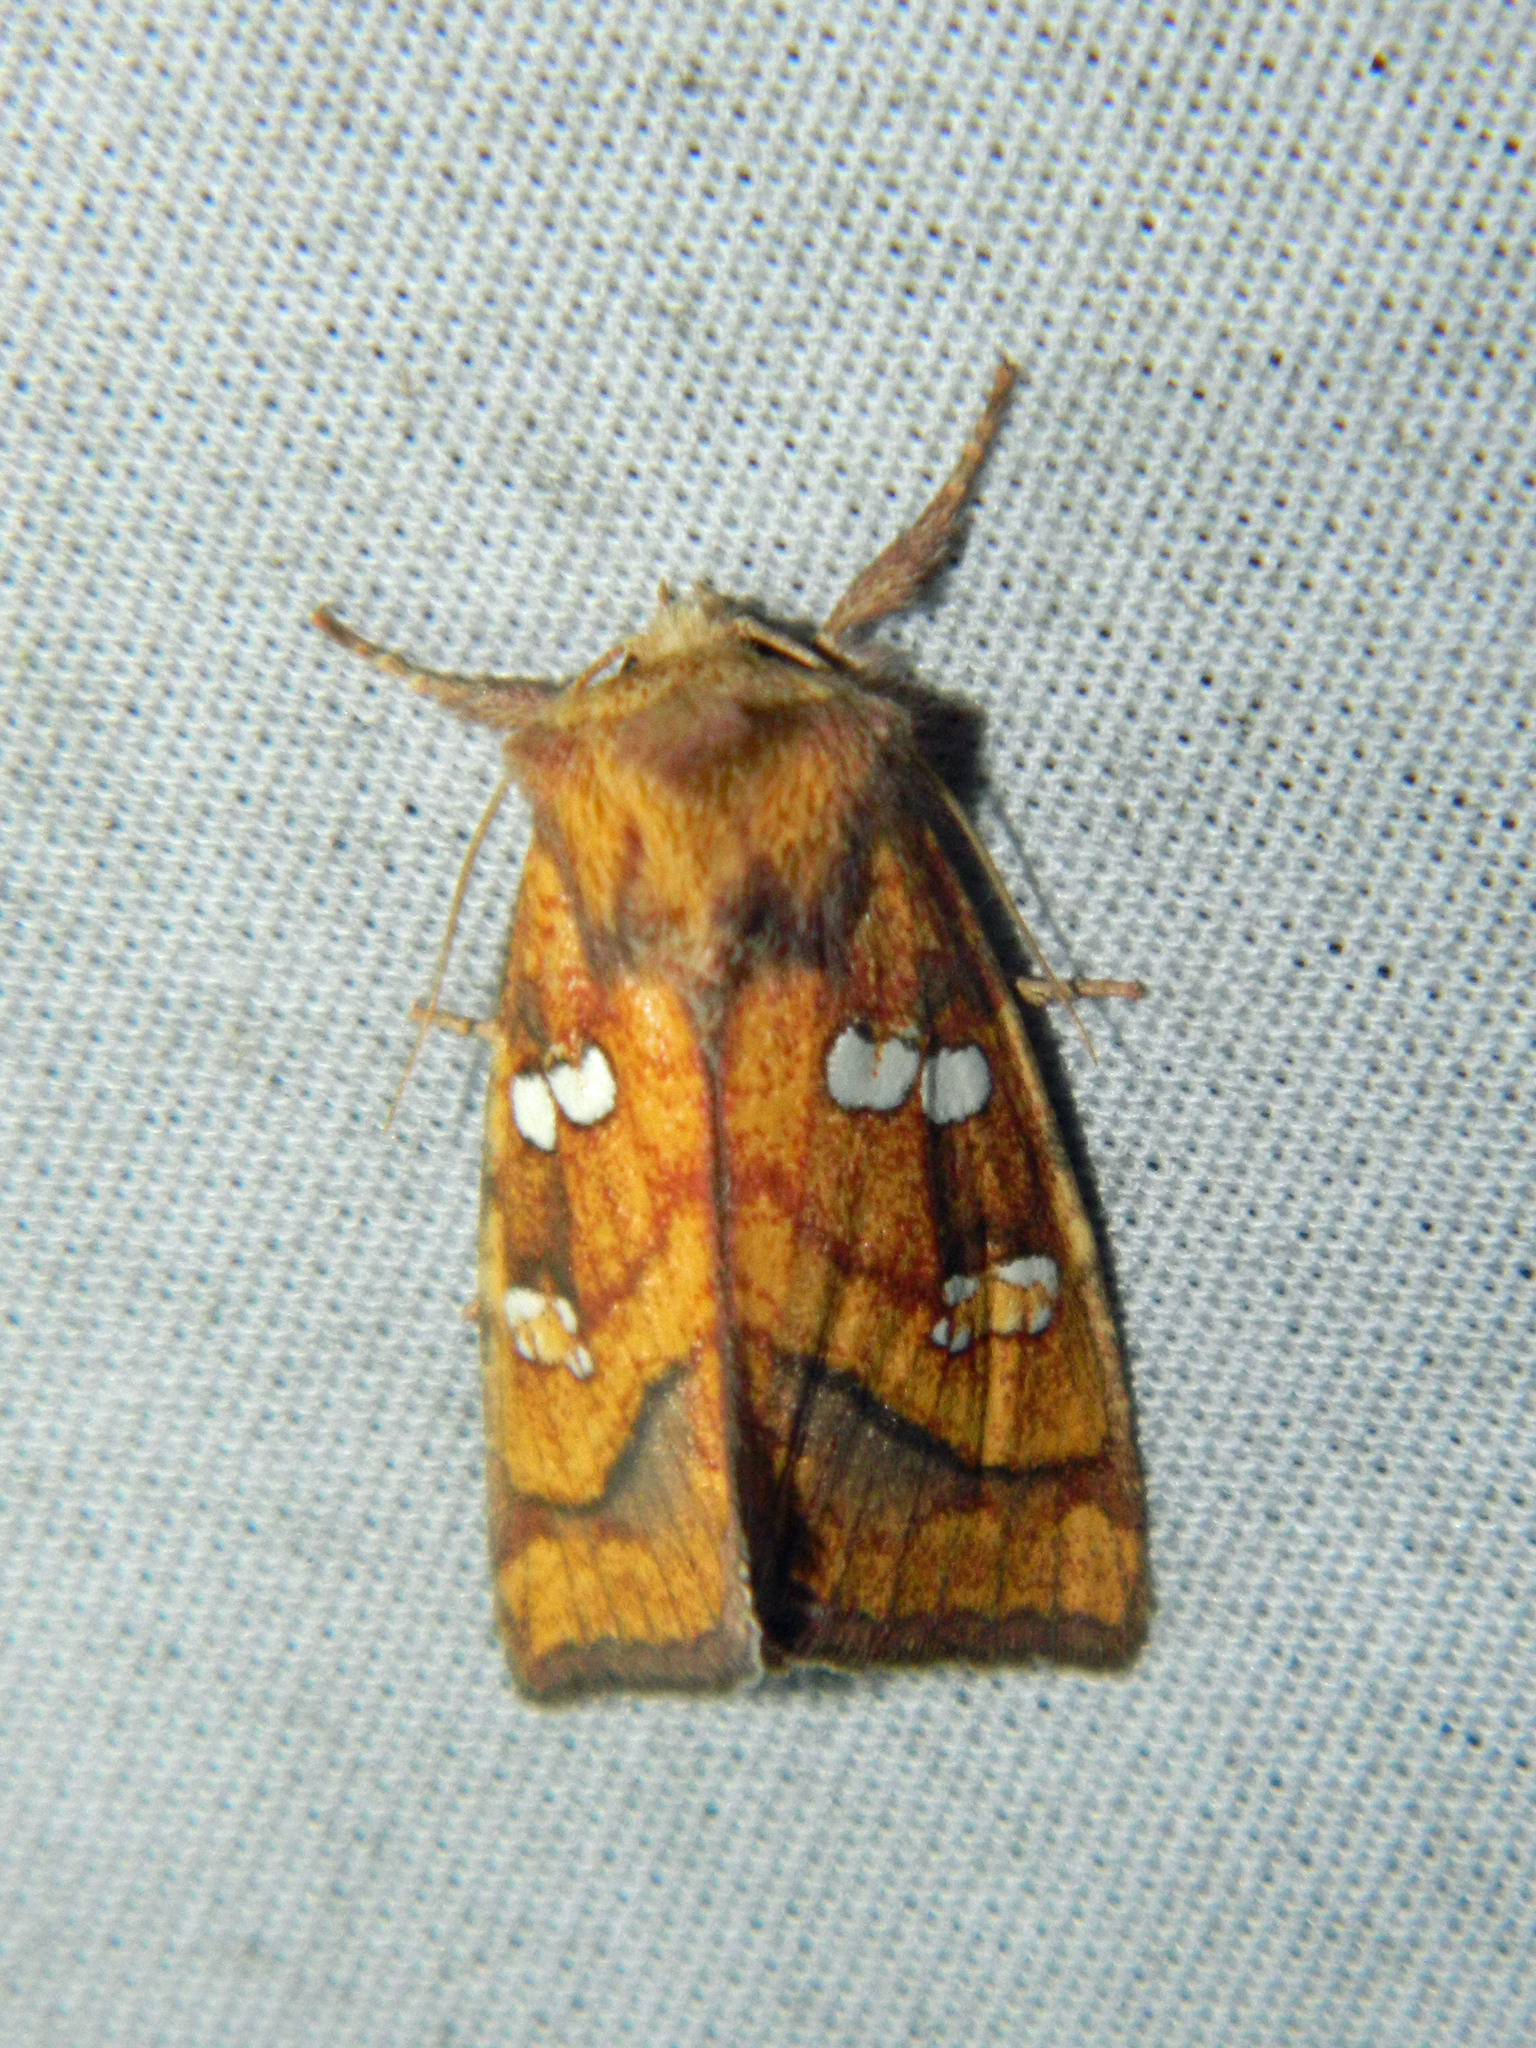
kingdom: Animalia
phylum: Arthropoda
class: Insecta
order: Lepidoptera
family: Noctuidae
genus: Papaipema
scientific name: Papaipema pterisii
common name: Bracken borer moth
